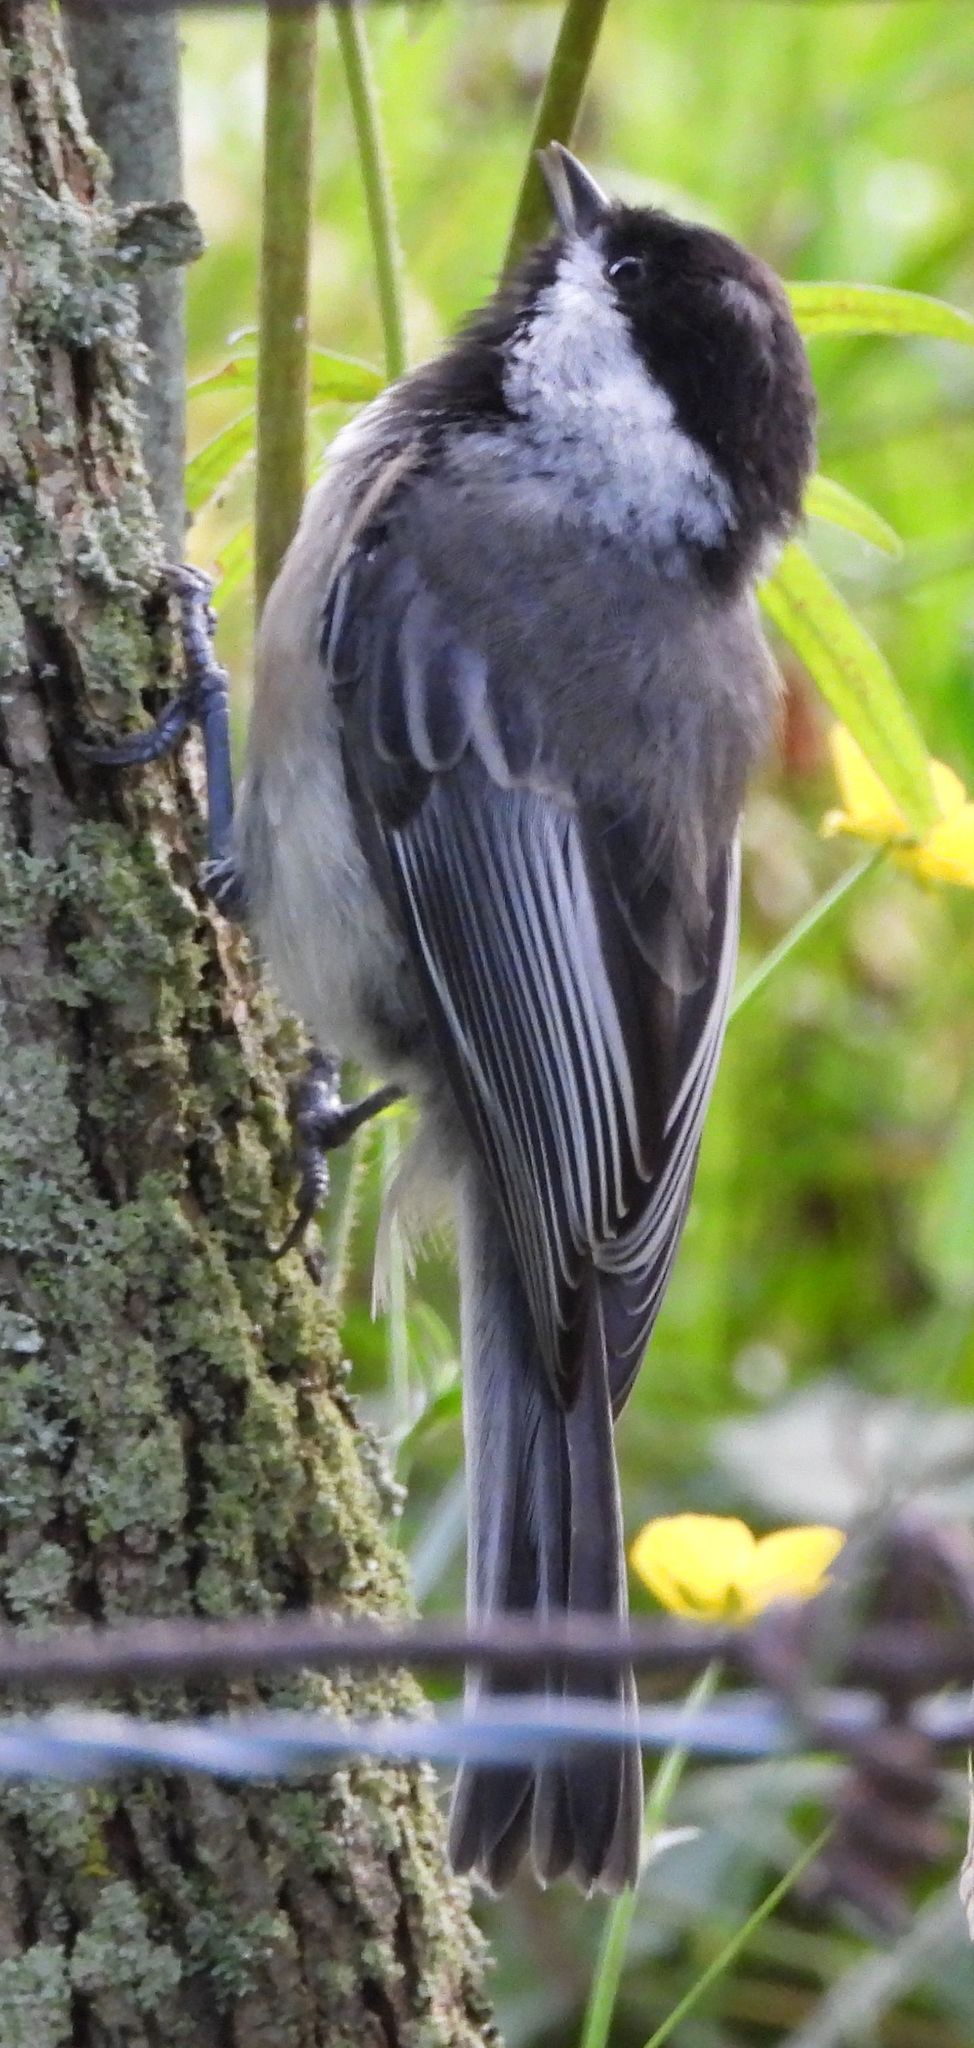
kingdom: Animalia
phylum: Chordata
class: Aves
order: Passeriformes
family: Paridae
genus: Poecile
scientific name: Poecile atricapillus
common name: Black-capped chickadee
